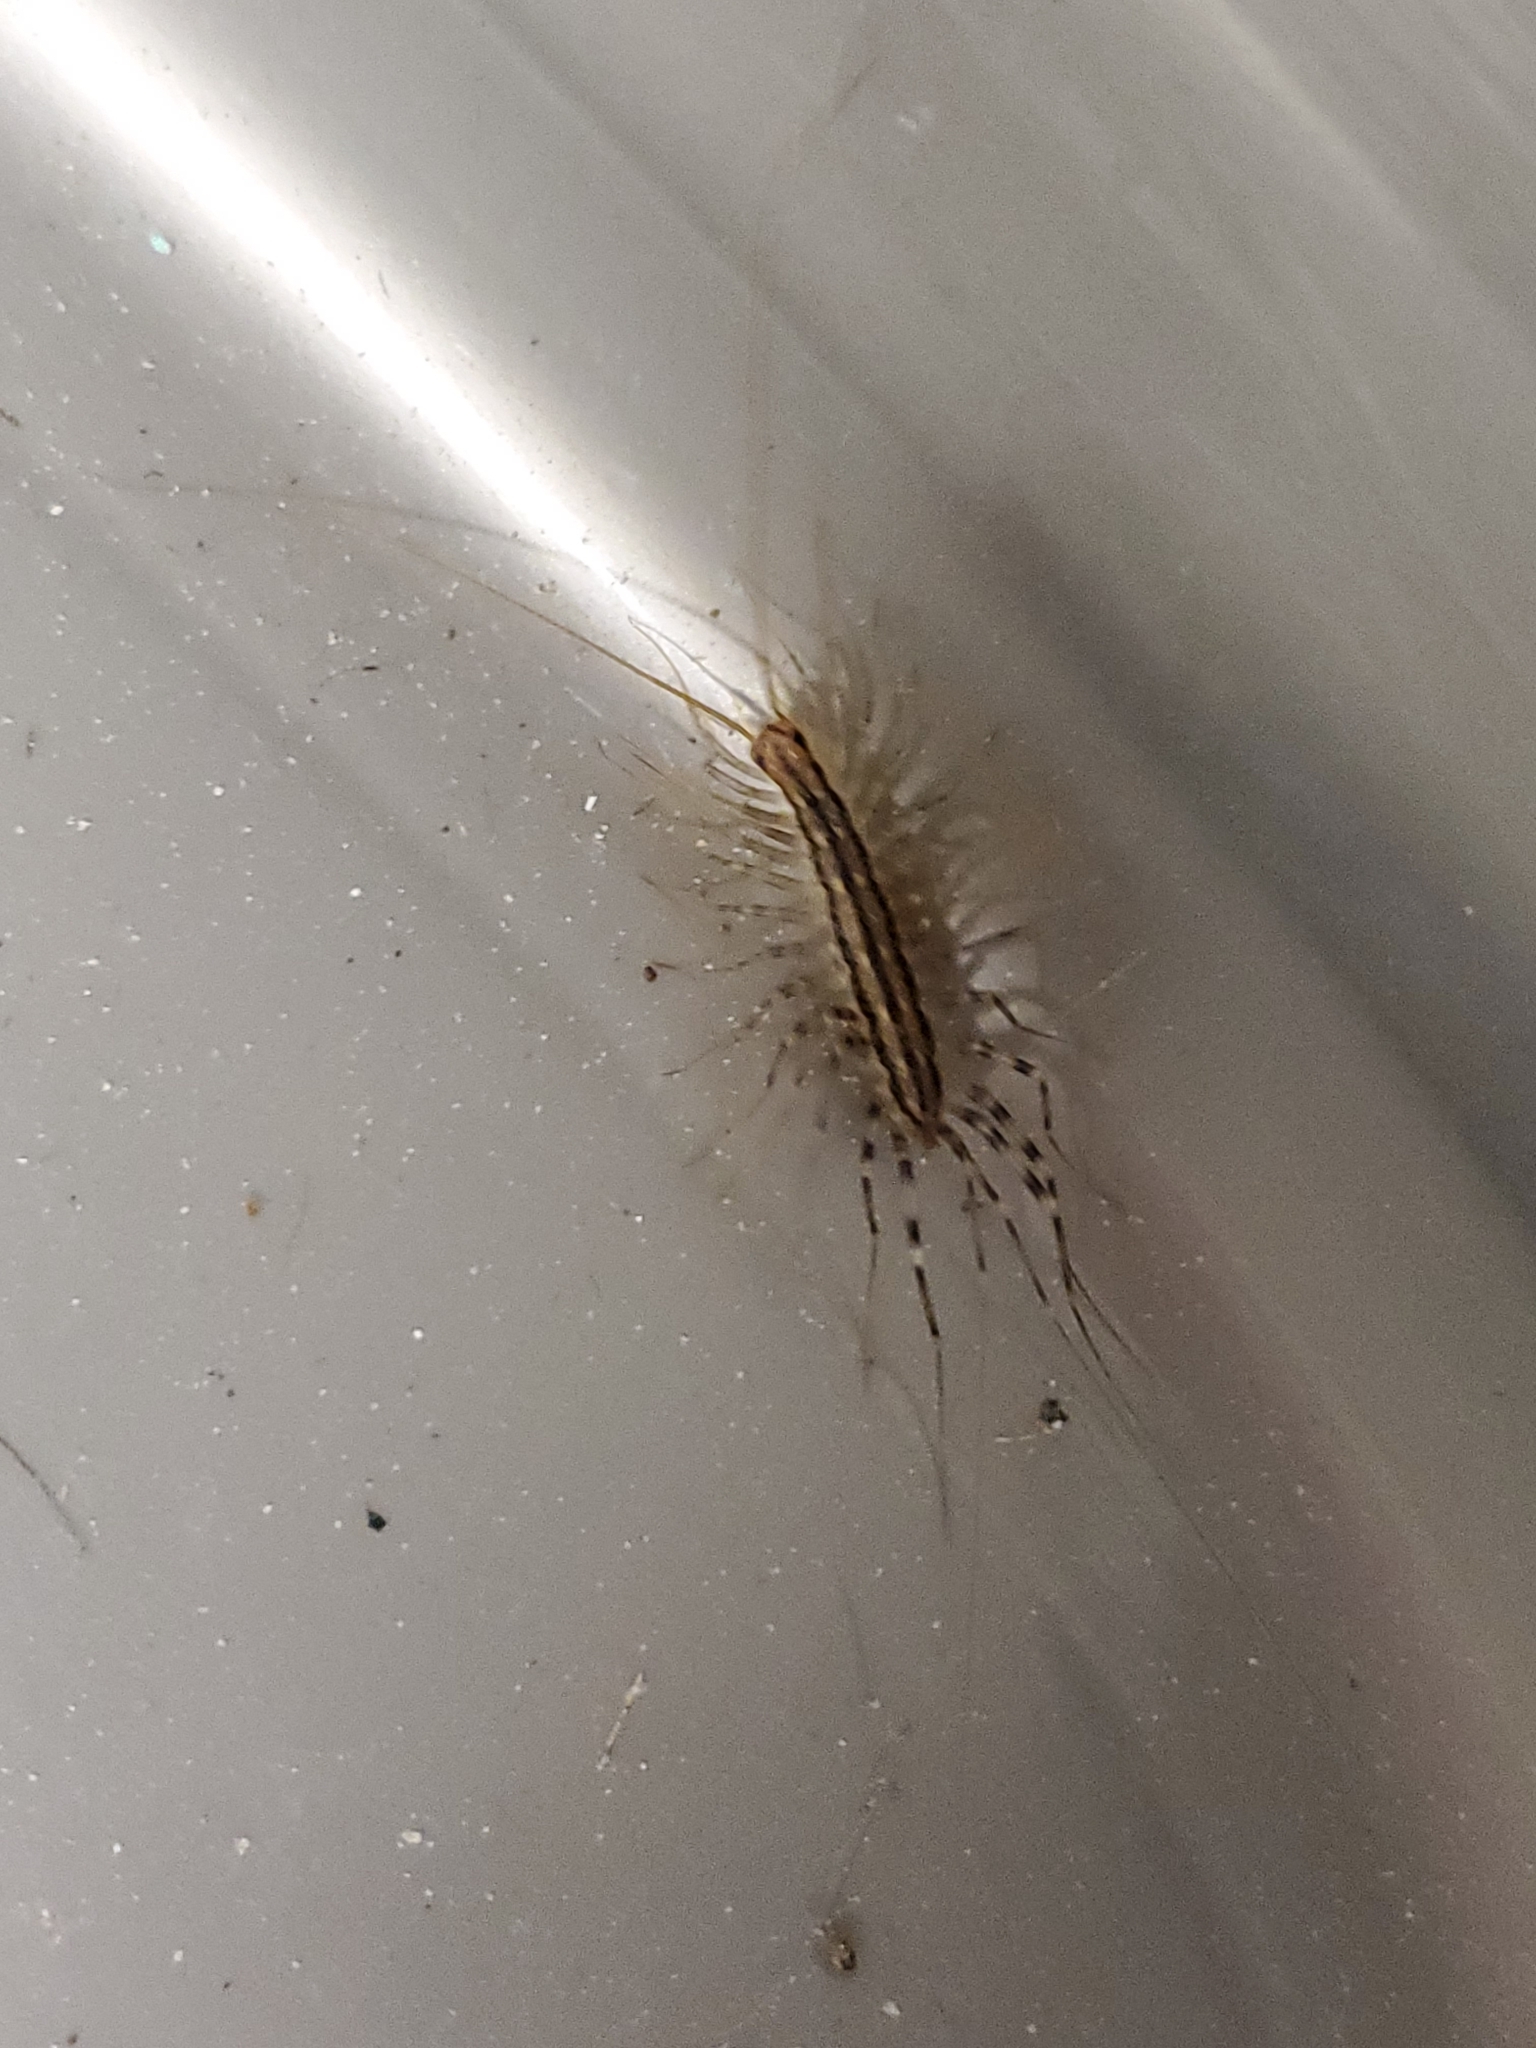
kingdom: Animalia
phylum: Arthropoda
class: Chilopoda
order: Scutigeromorpha
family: Scutigeridae
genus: Scutigera
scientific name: Scutigera coleoptrata
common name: House centipede
